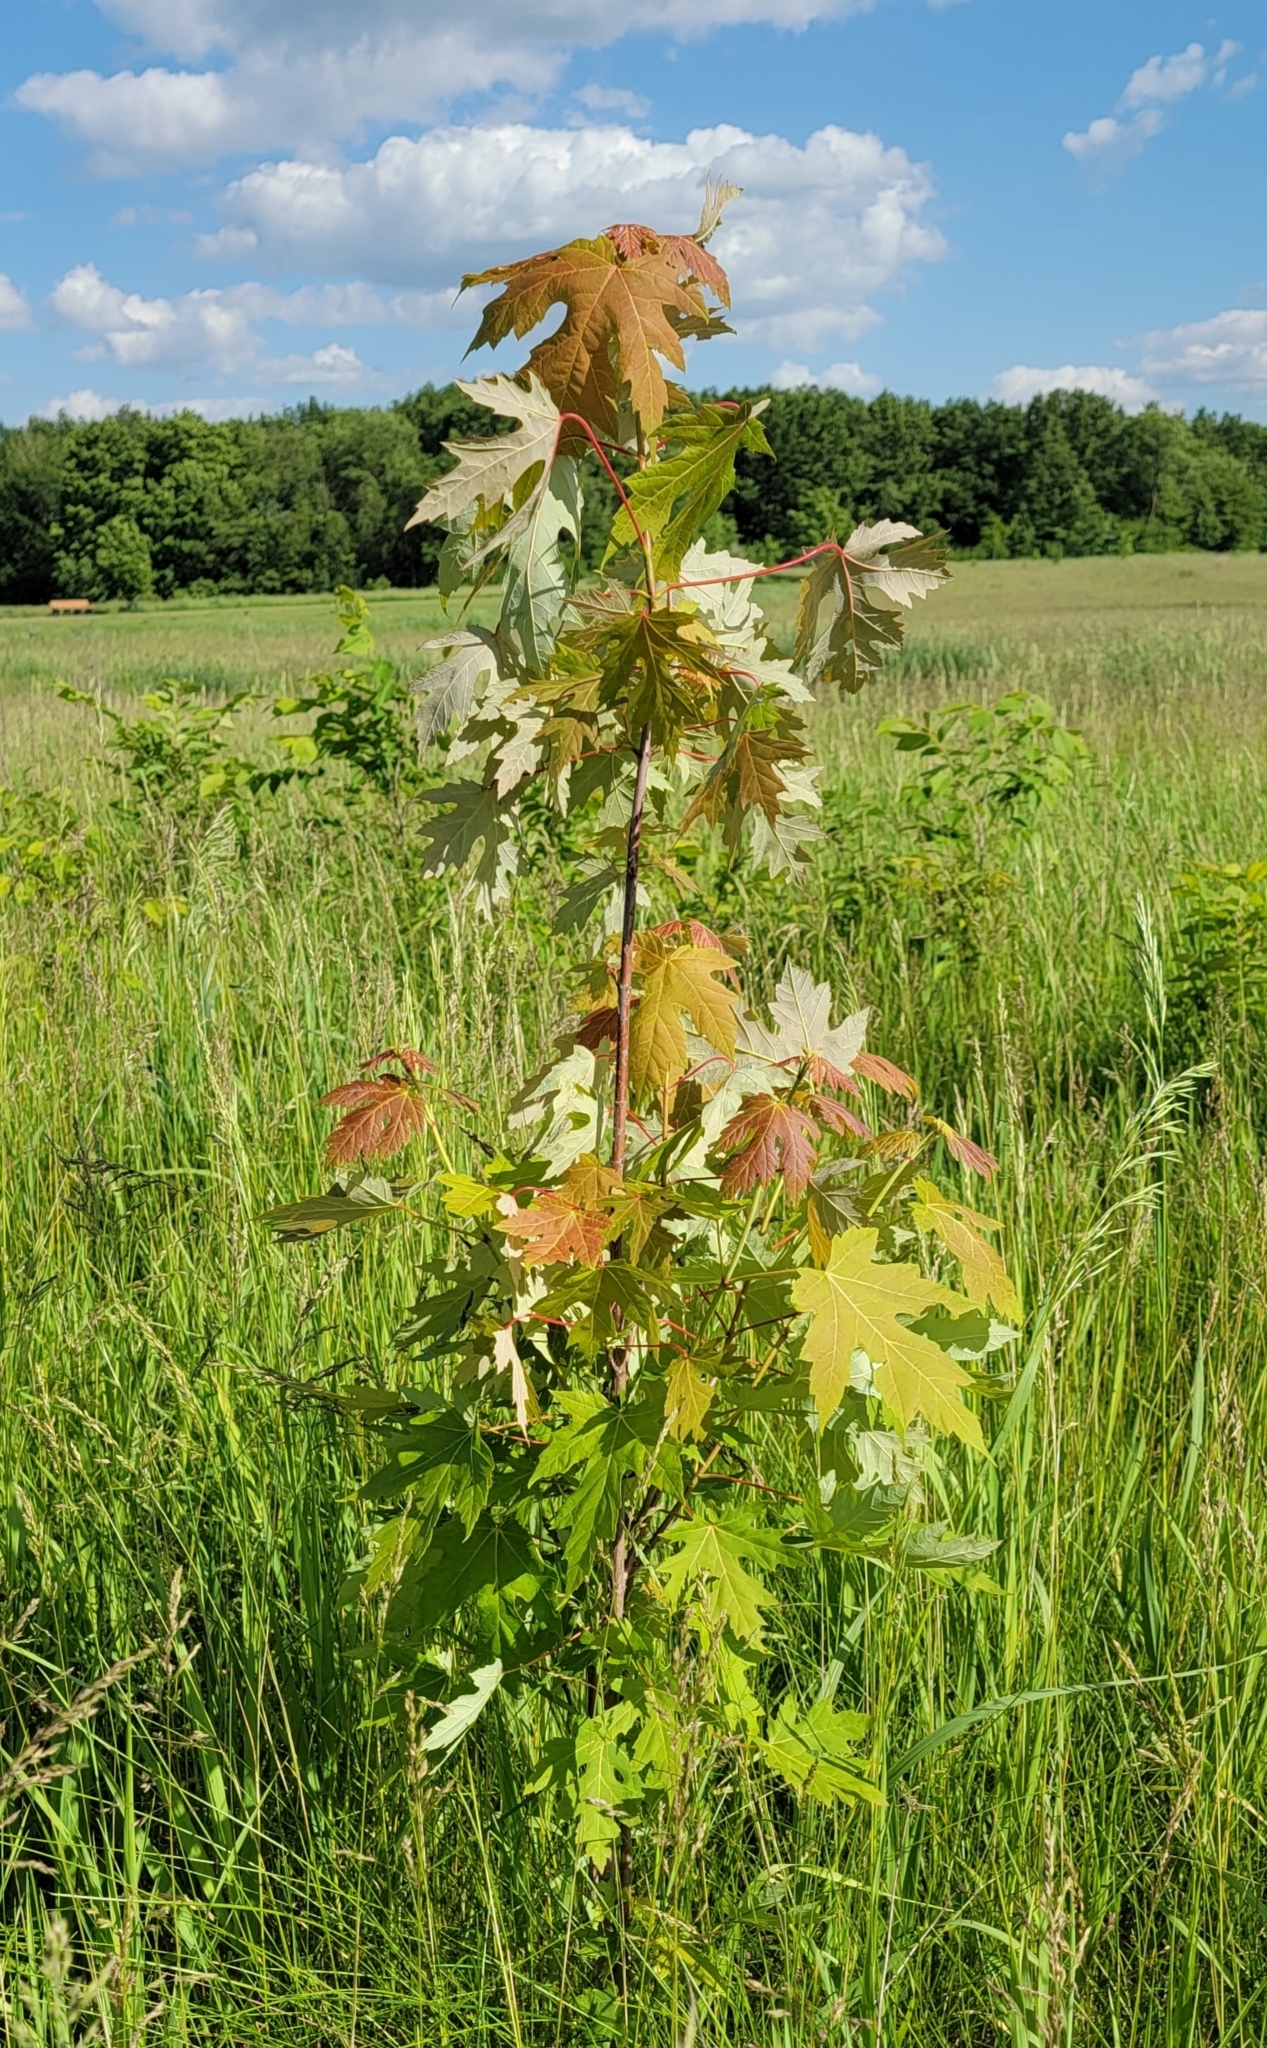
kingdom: Plantae
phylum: Tracheophyta
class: Magnoliopsida
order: Sapindales
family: Sapindaceae
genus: Acer
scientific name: Acer saccharinum
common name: Silver maple
